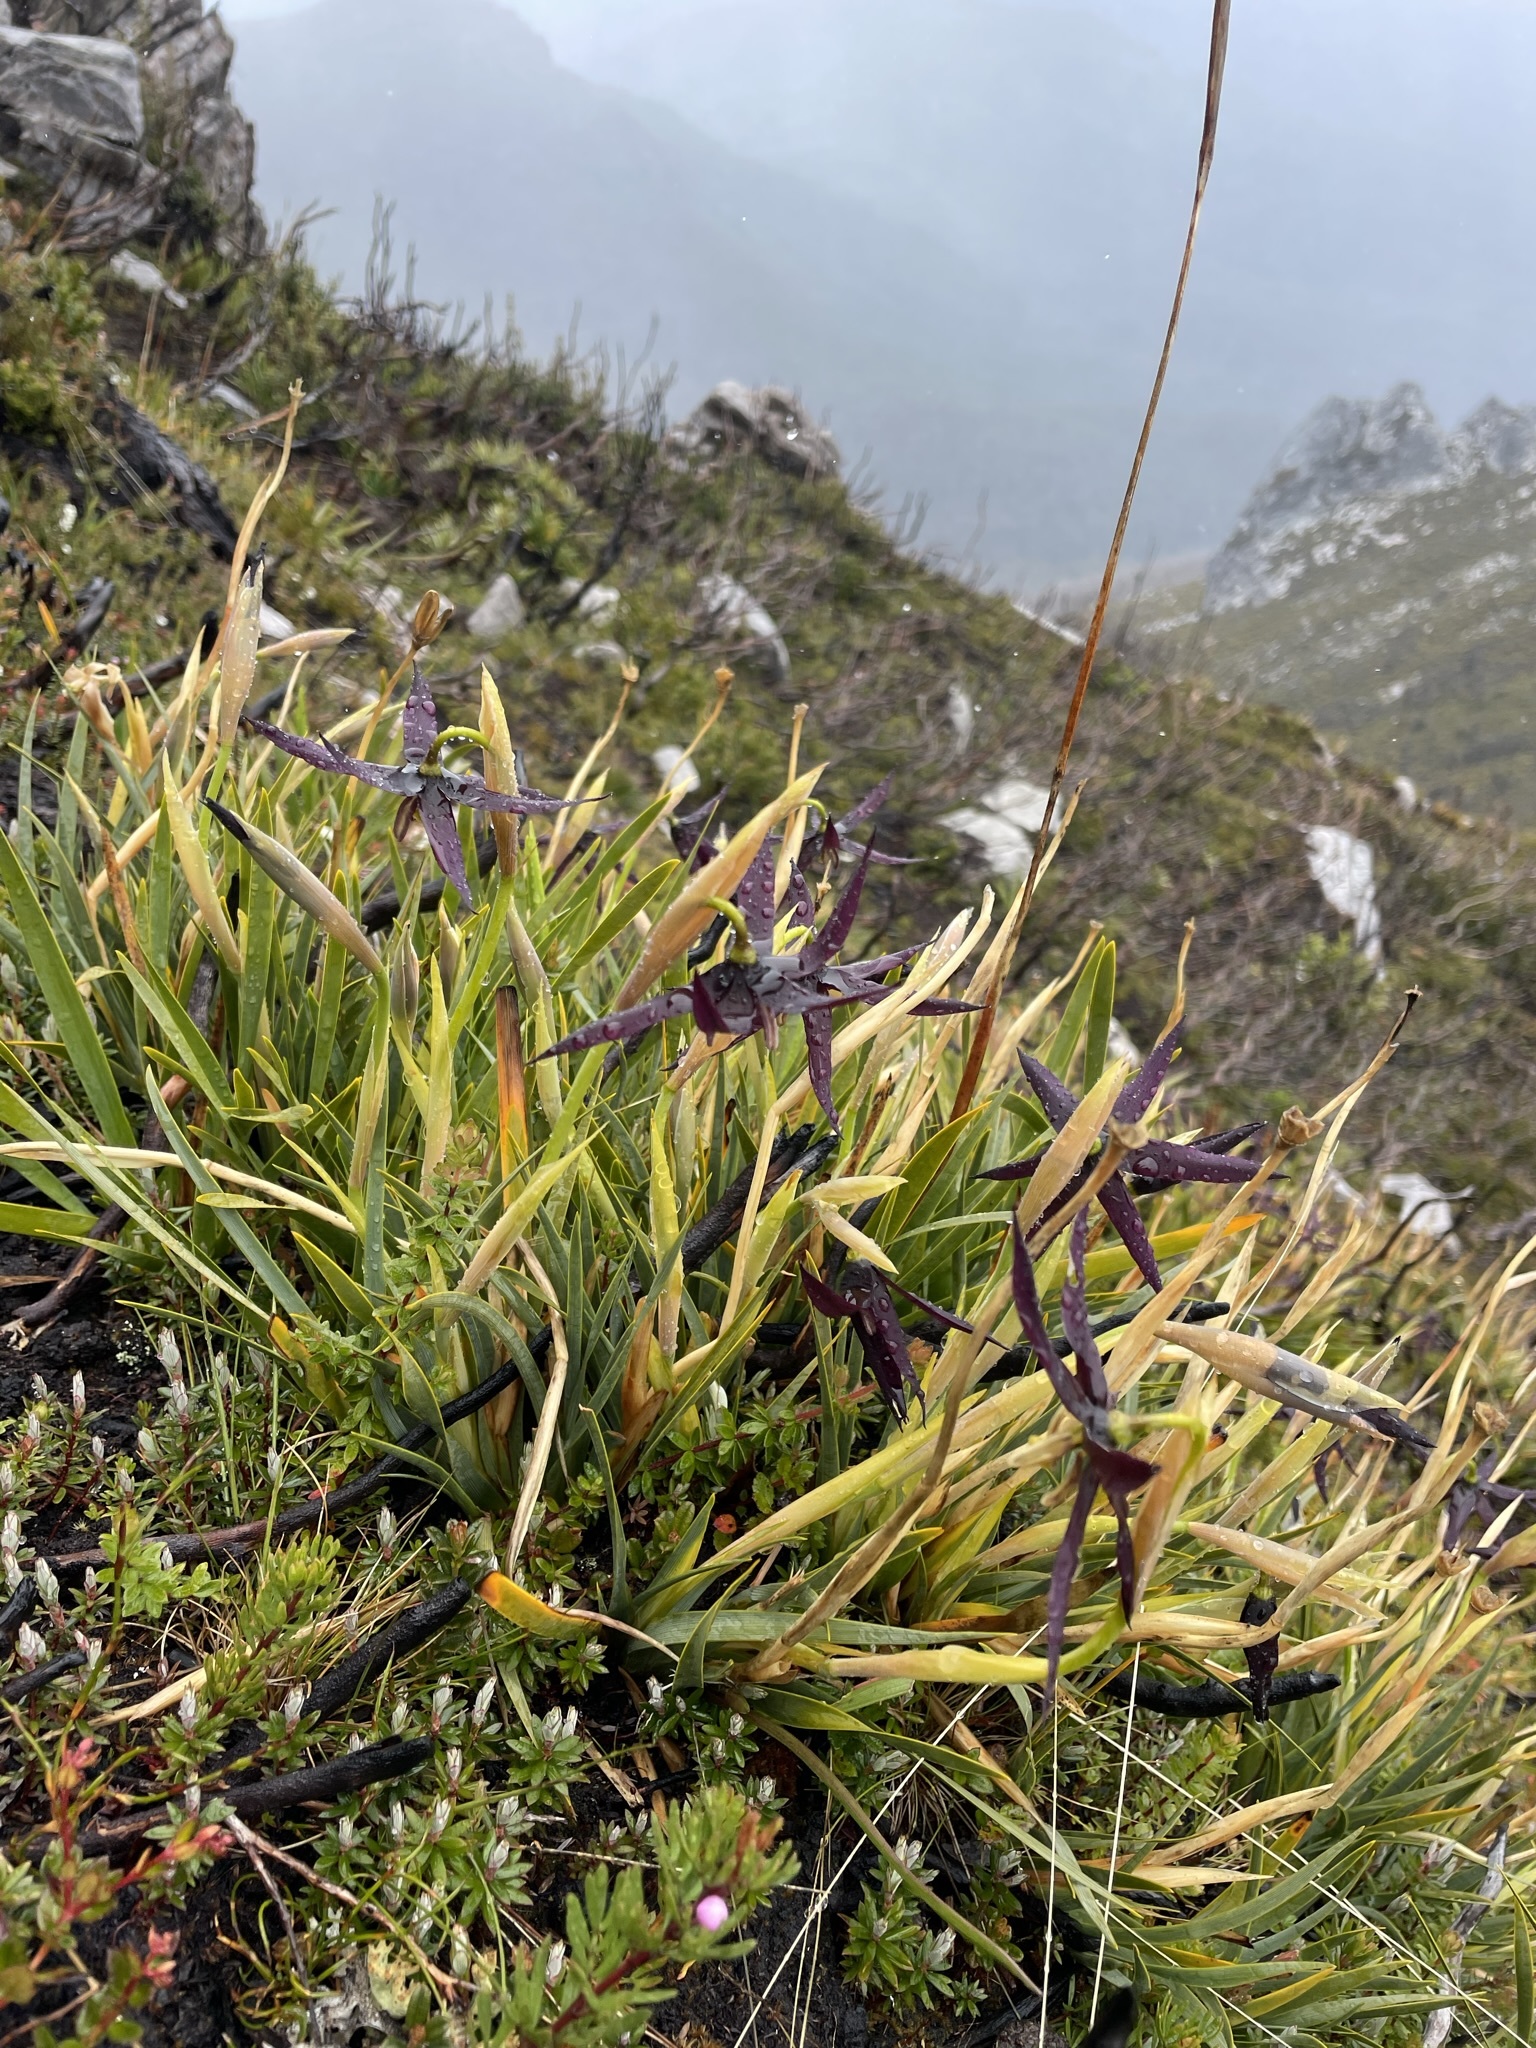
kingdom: Plantae
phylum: Tracheophyta
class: Liliopsida
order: Asparagales
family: Iridaceae
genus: Isophysis
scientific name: Isophysis tasmanica
